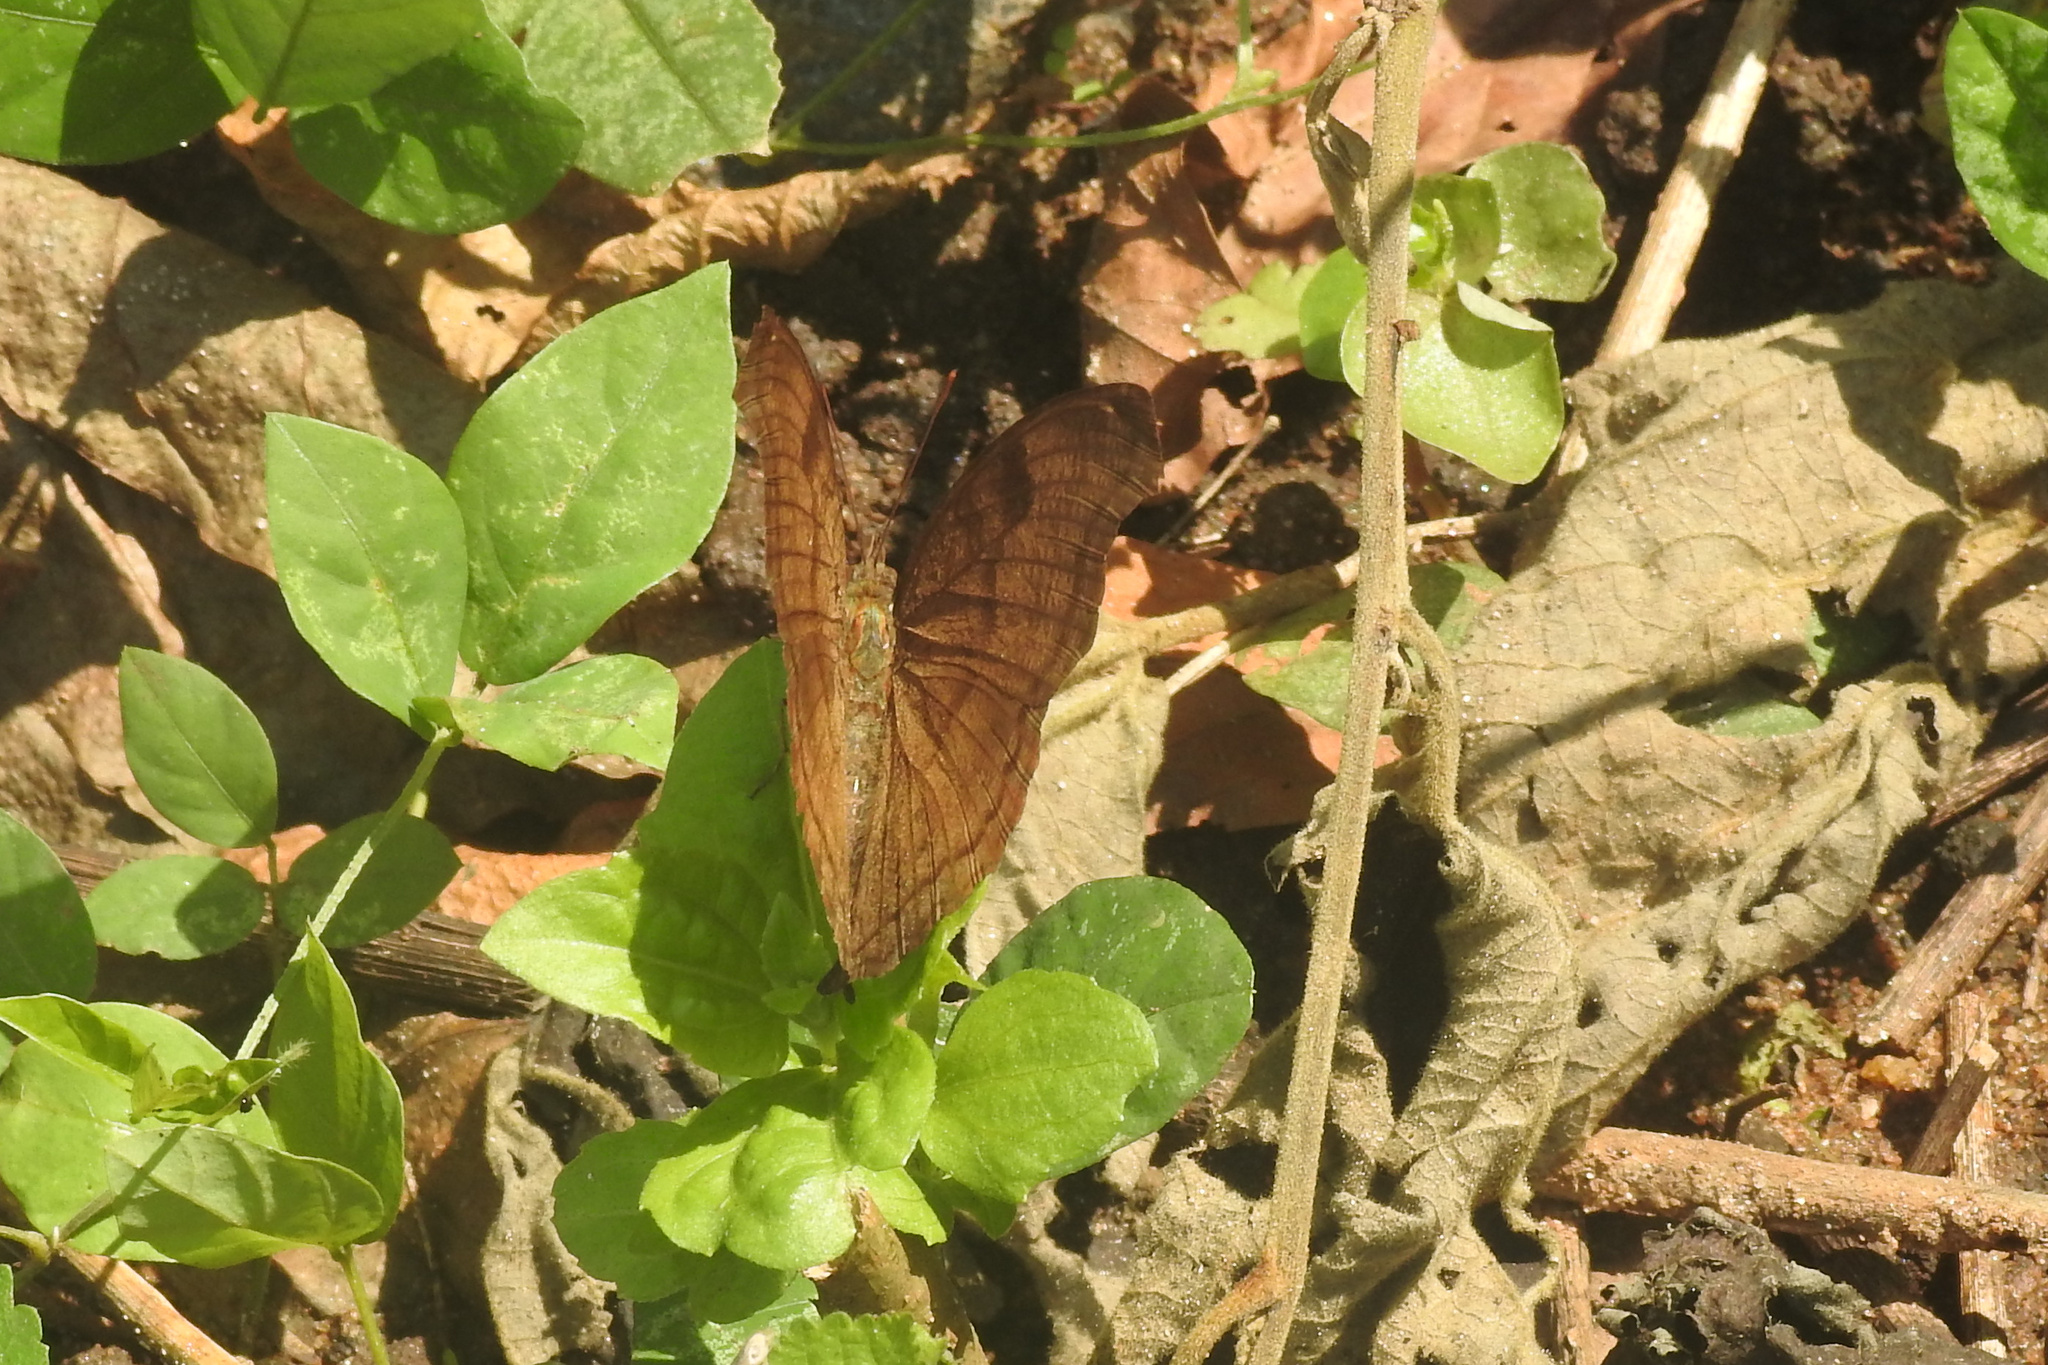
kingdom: Animalia
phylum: Arthropoda
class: Insecta
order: Lepidoptera
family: Nymphalidae
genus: Junonia
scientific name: Junonia iphita
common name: Chocolate pansy
